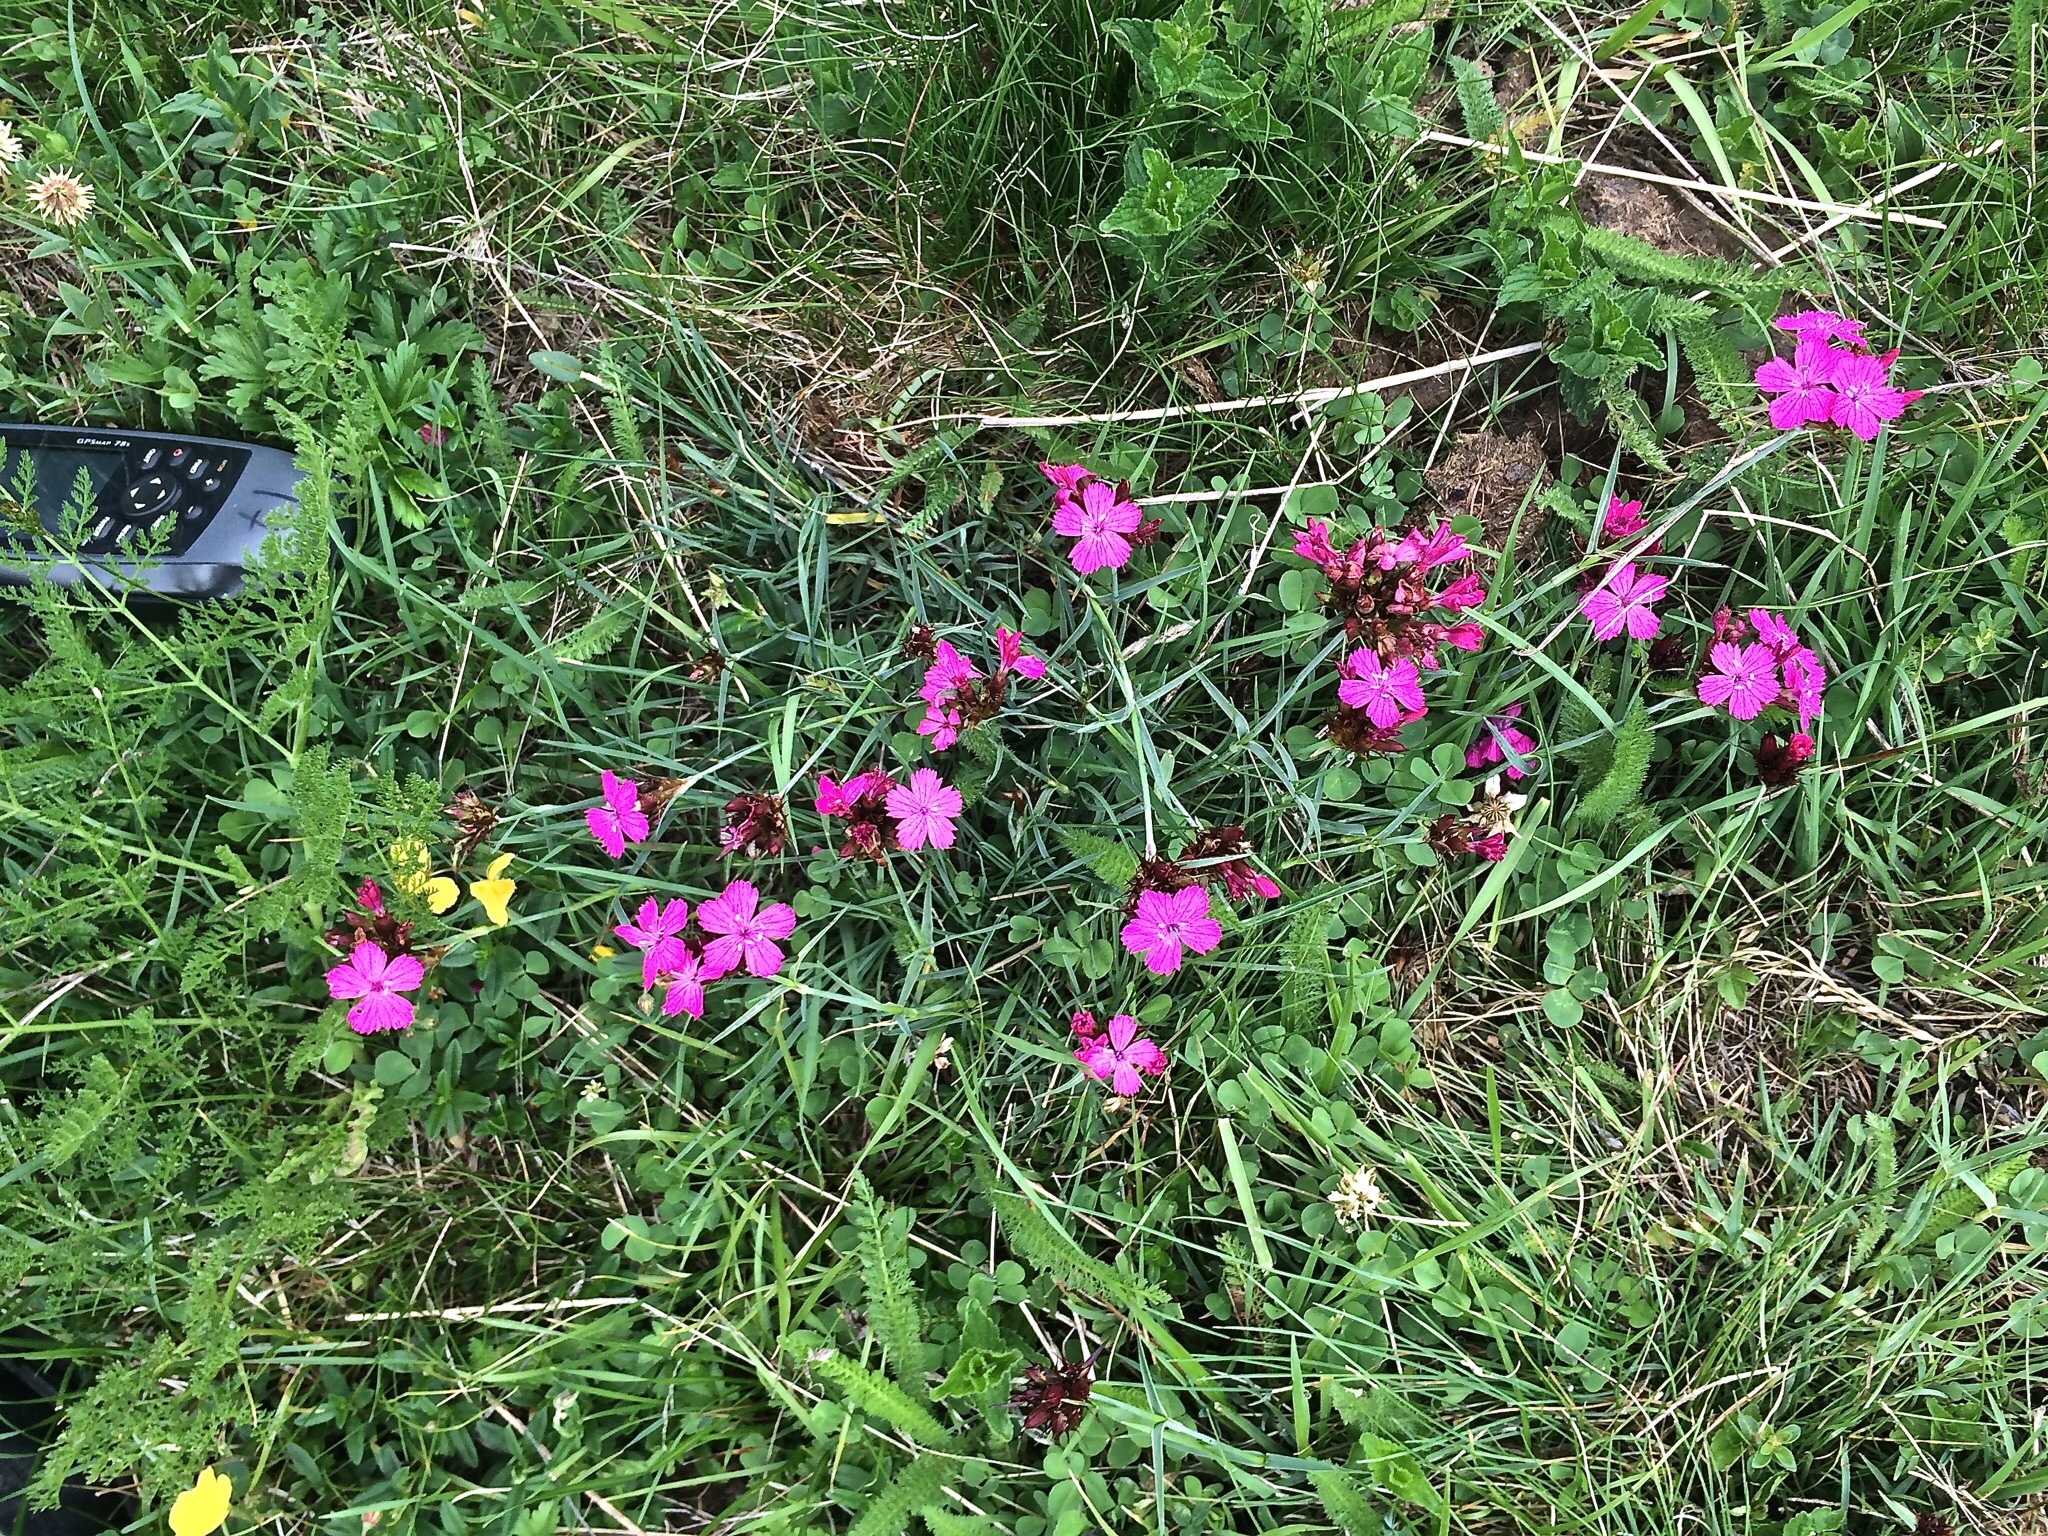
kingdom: Plantae
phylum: Tracheophyta
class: Magnoliopsida
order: Caryophyllales
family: Caryophyllaceae
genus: Dianthus
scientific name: Dianthus carthusianorum
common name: Carthusian pink
